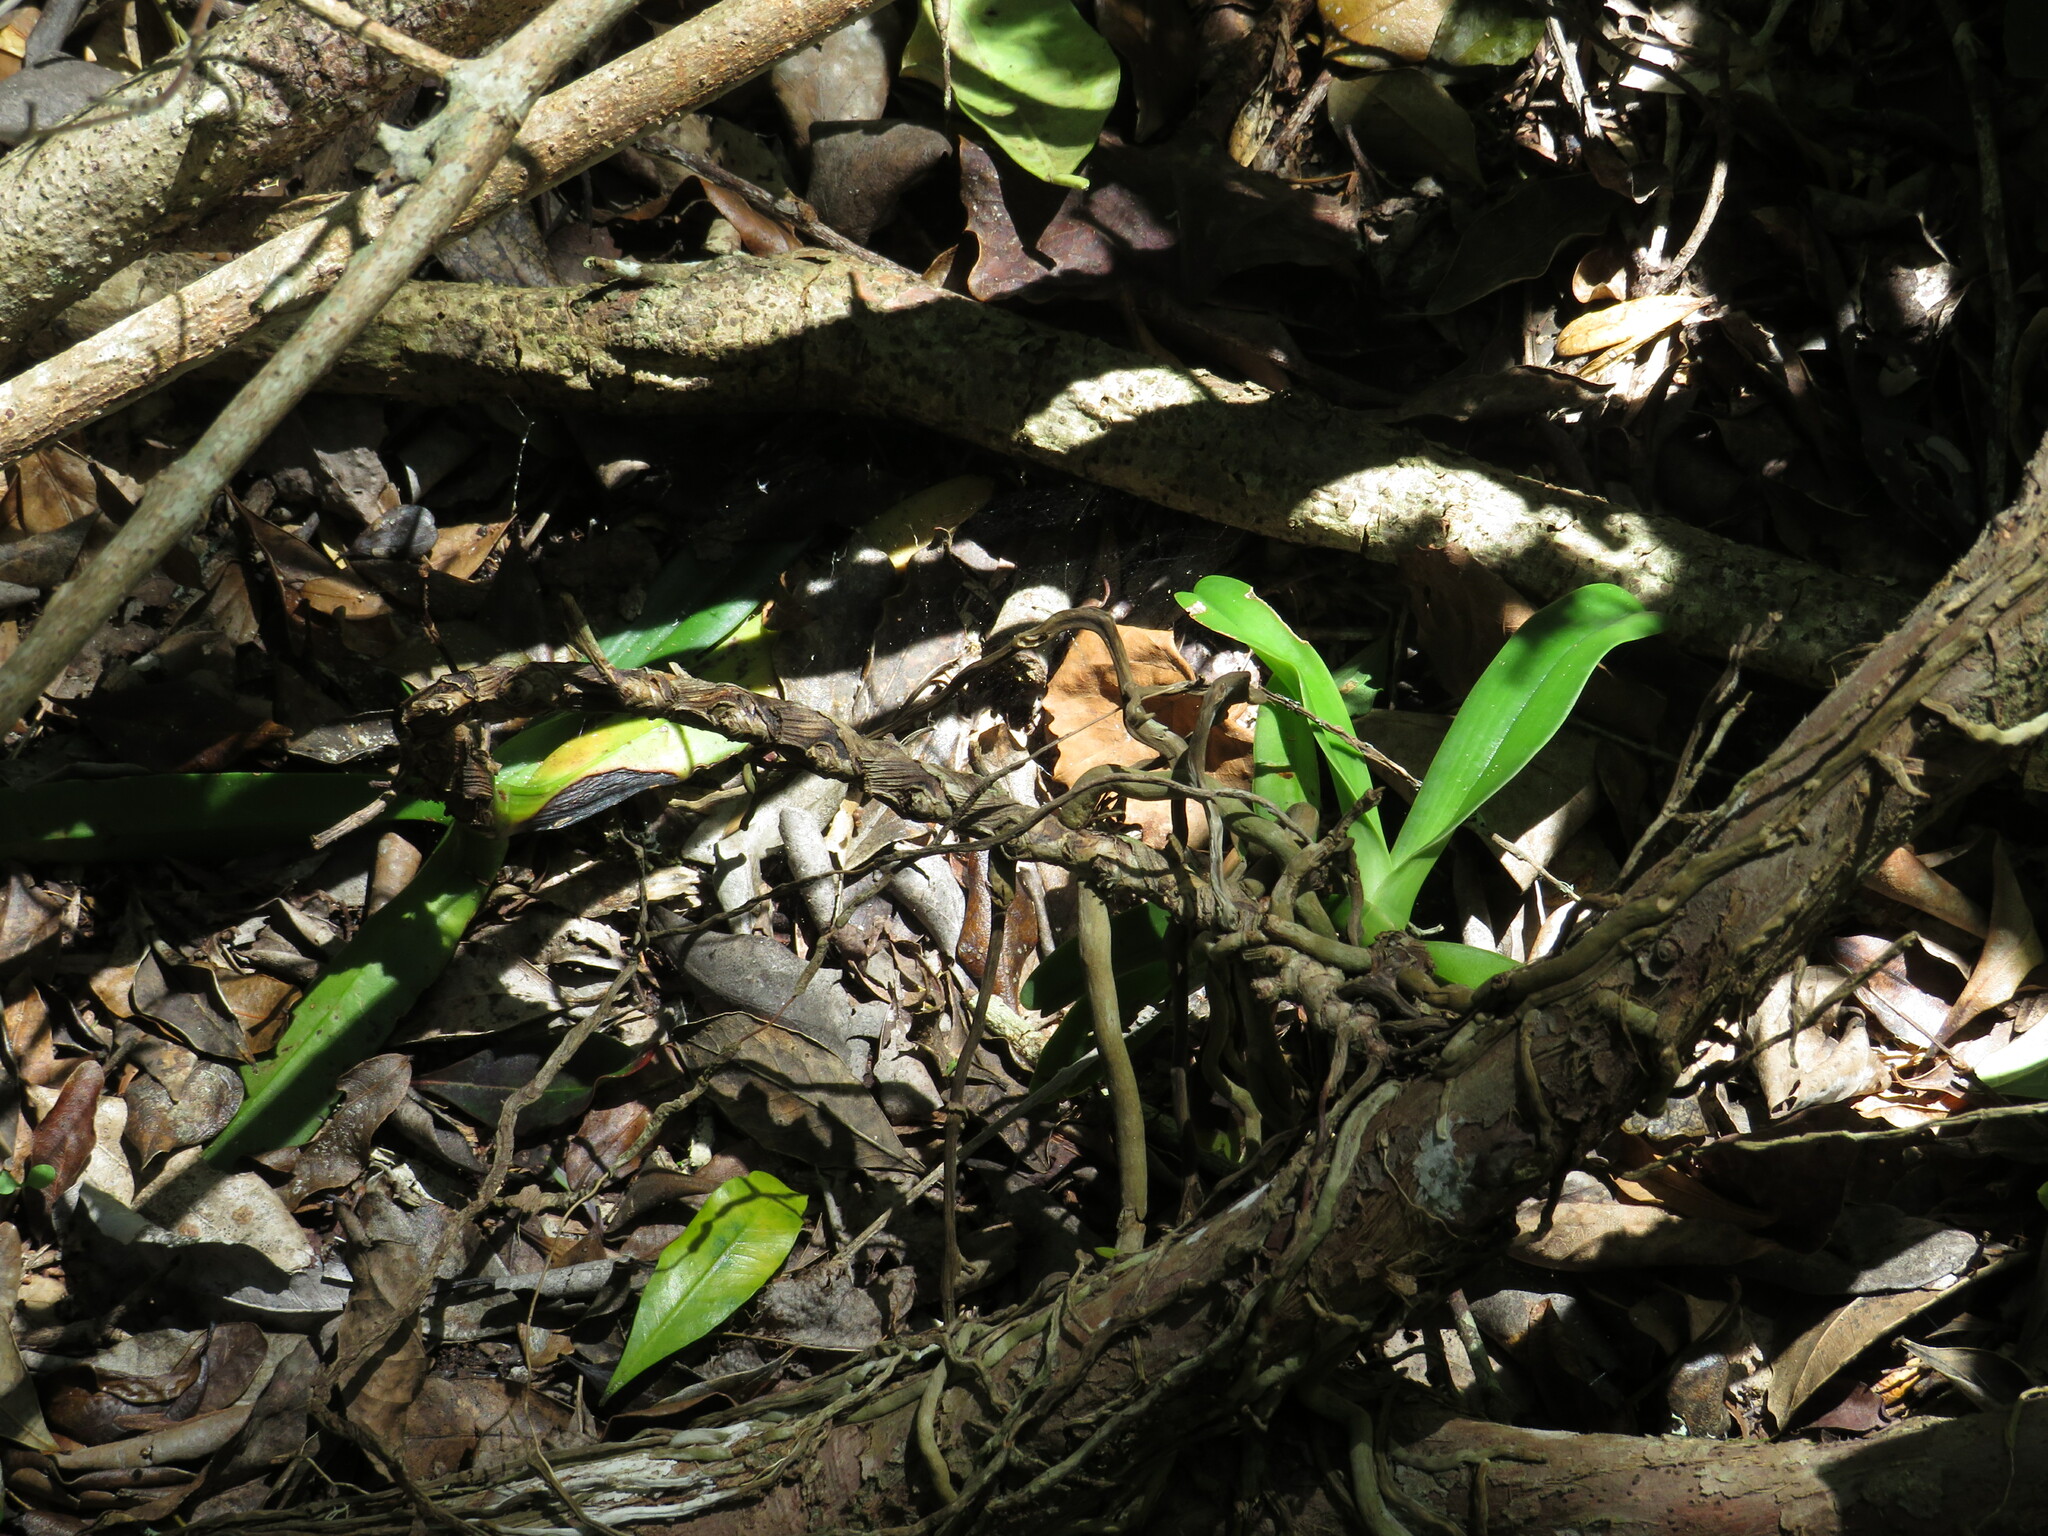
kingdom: Plantae
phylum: Tracheophyta
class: Liliopsida
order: Asparagales
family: Orchidaceae
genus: Cyrtorchis
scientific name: Cyrtorchis arcuata
